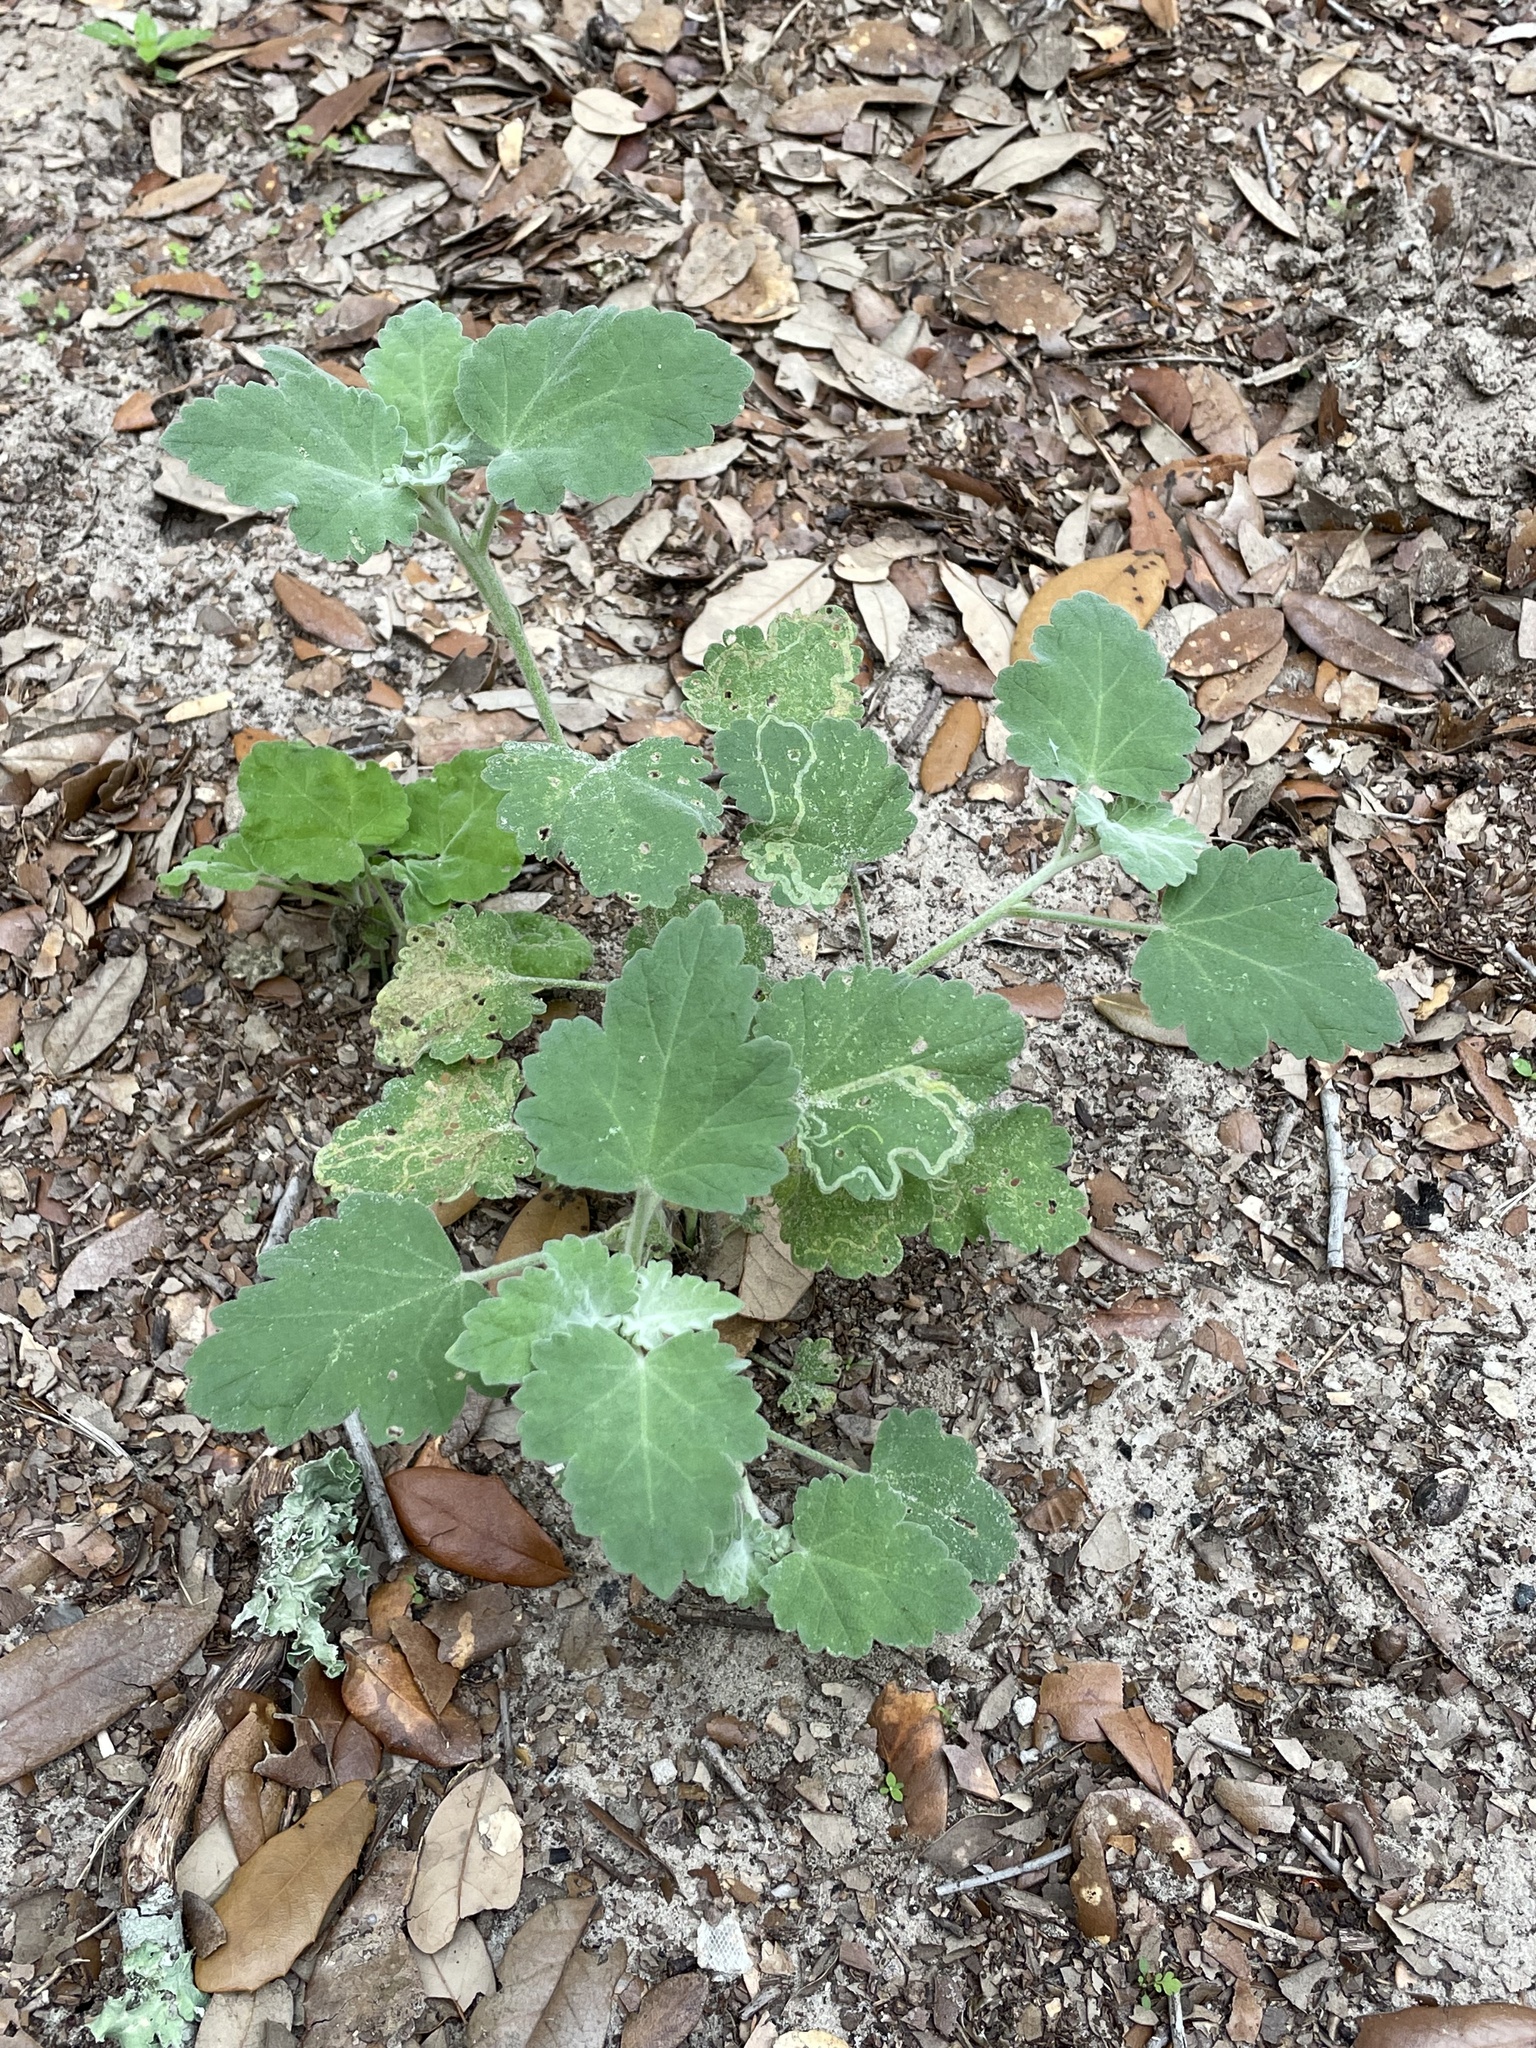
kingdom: Plantae
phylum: Tracheophyta
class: Magnoliopsida
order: Malvales
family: Malvaceae
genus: Sphaeralcea
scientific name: Sphaeralcea lindheimeri
